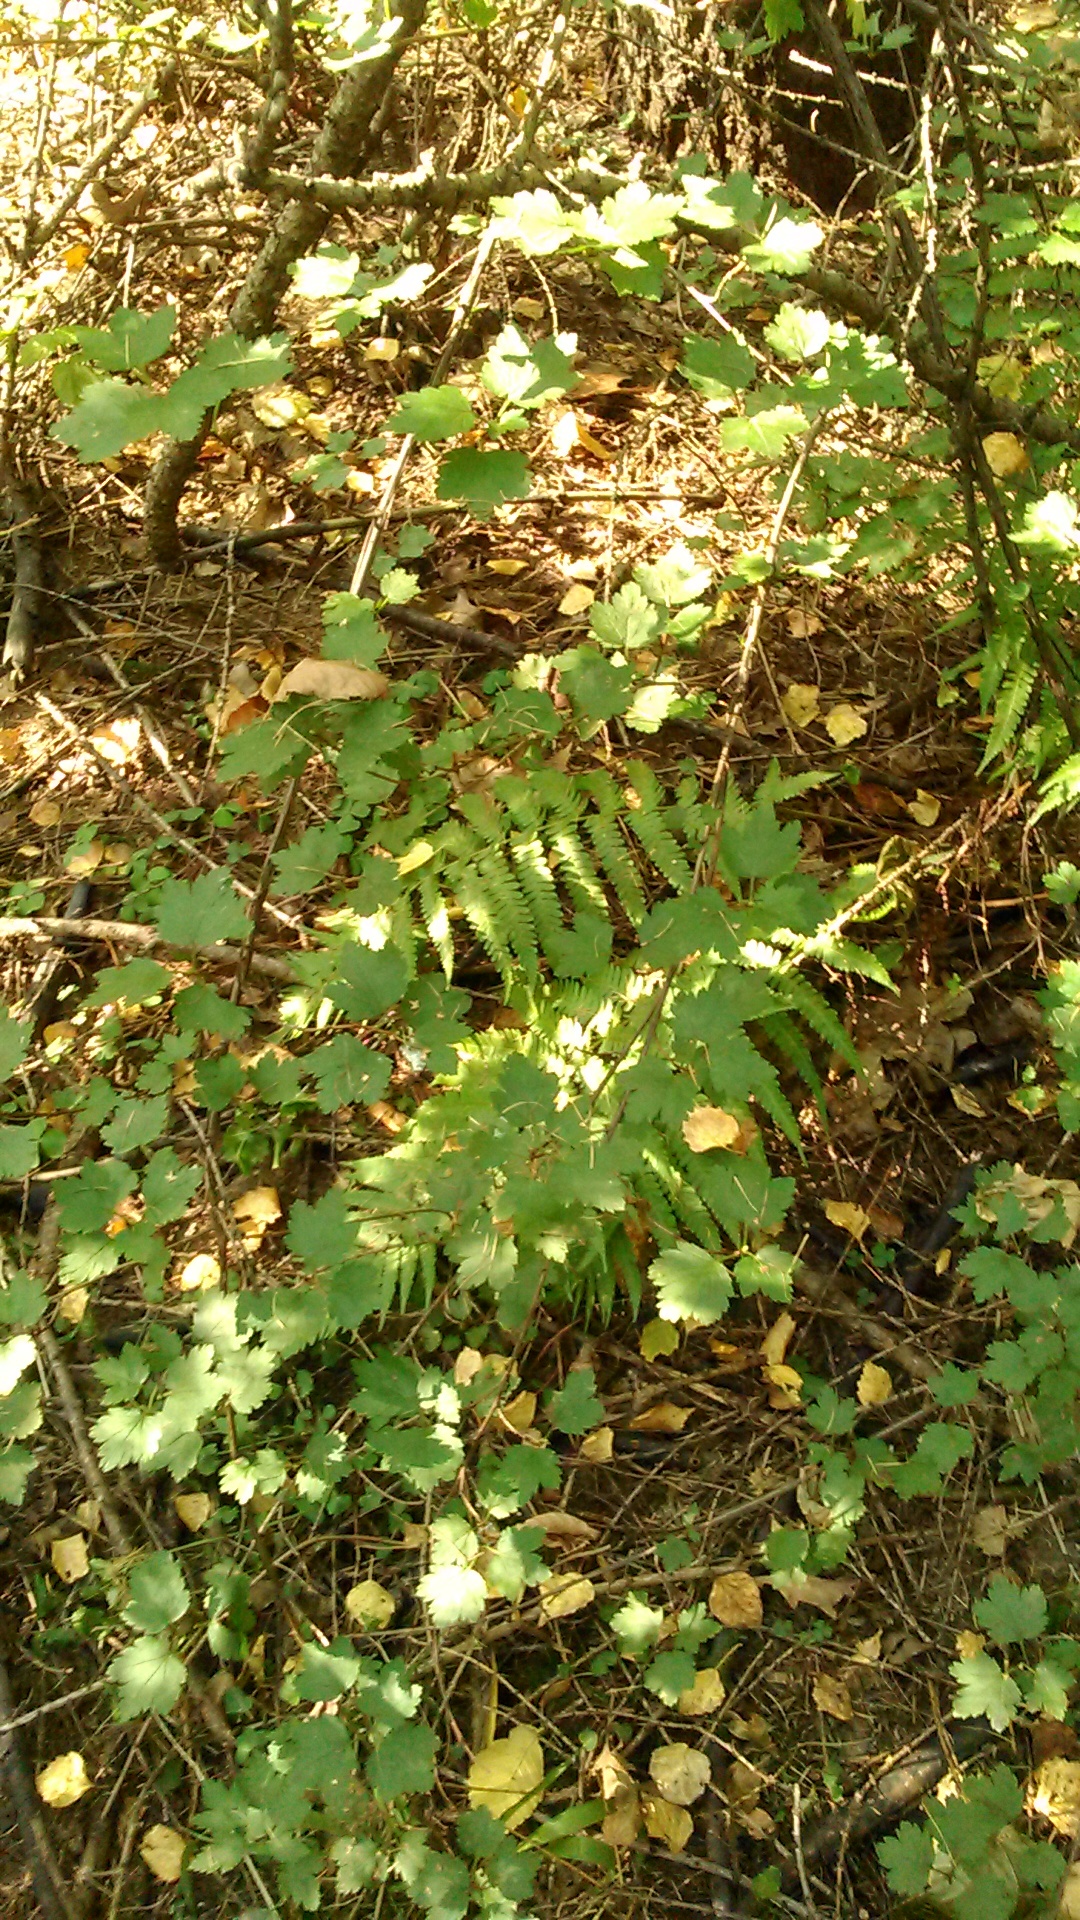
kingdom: Plantae
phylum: Tracheophyta
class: Magnoliopsida
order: Saxifragales
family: Grossulariaceae
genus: Ribes
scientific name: Ribes uva-crispa
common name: Gooseberry
